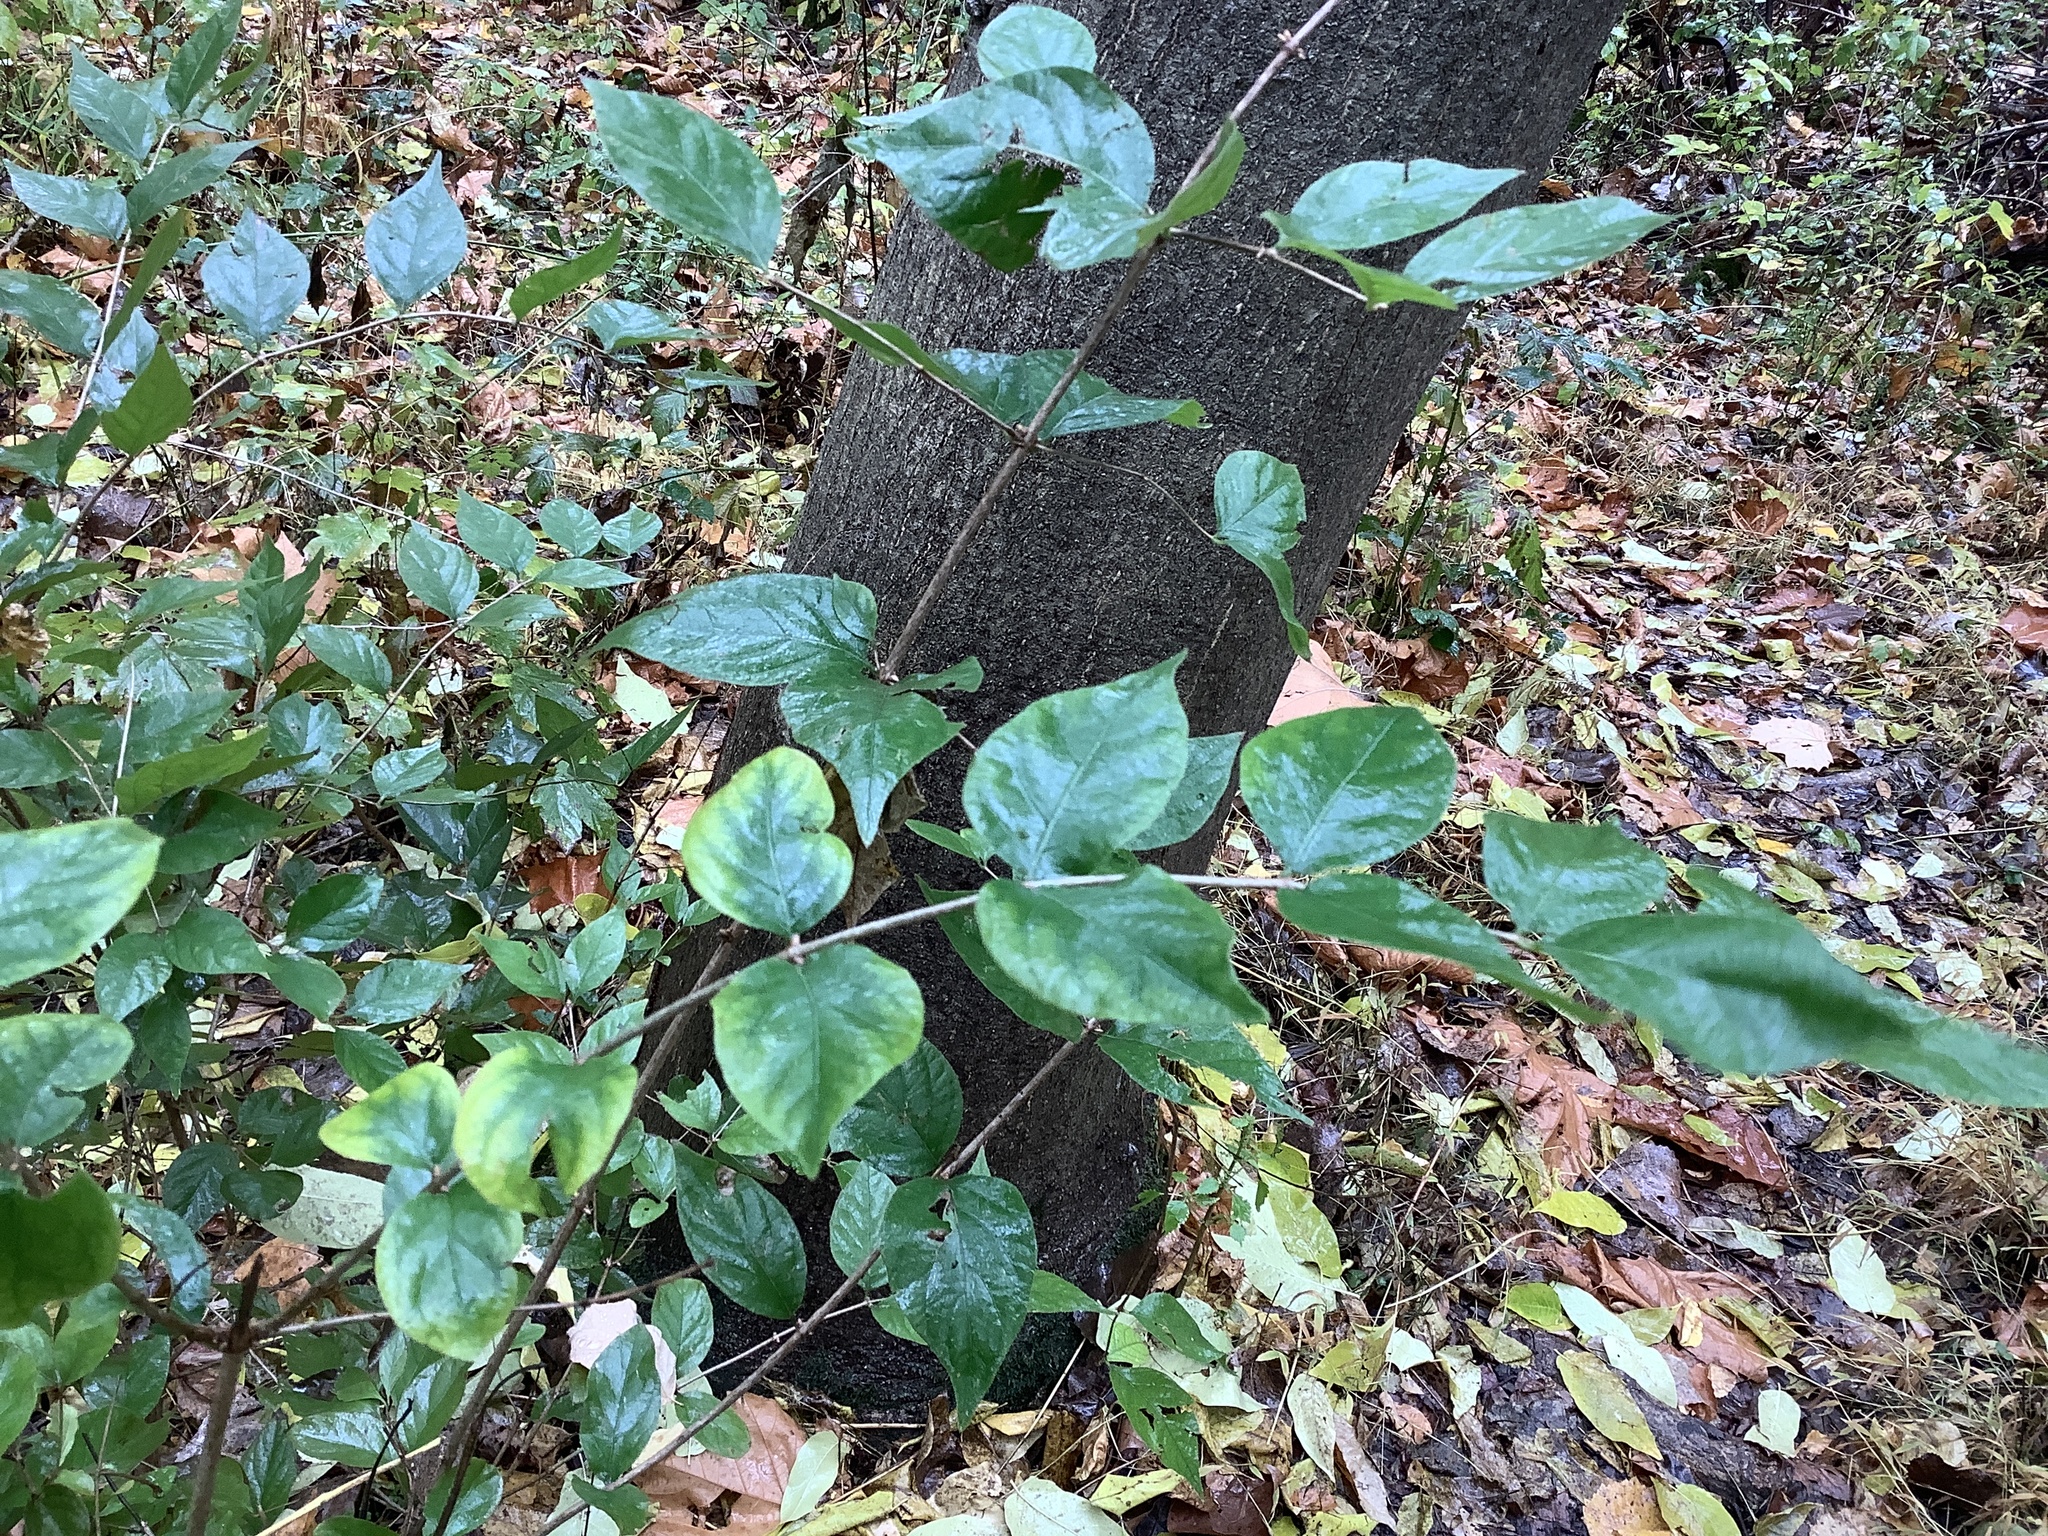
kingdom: Plantae
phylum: Tracheophyta
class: Magnoliopsida
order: Dipsacales
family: Caprifoliaceae
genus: Lonicera
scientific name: Lonicera maackii
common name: Amur honeysuckle
